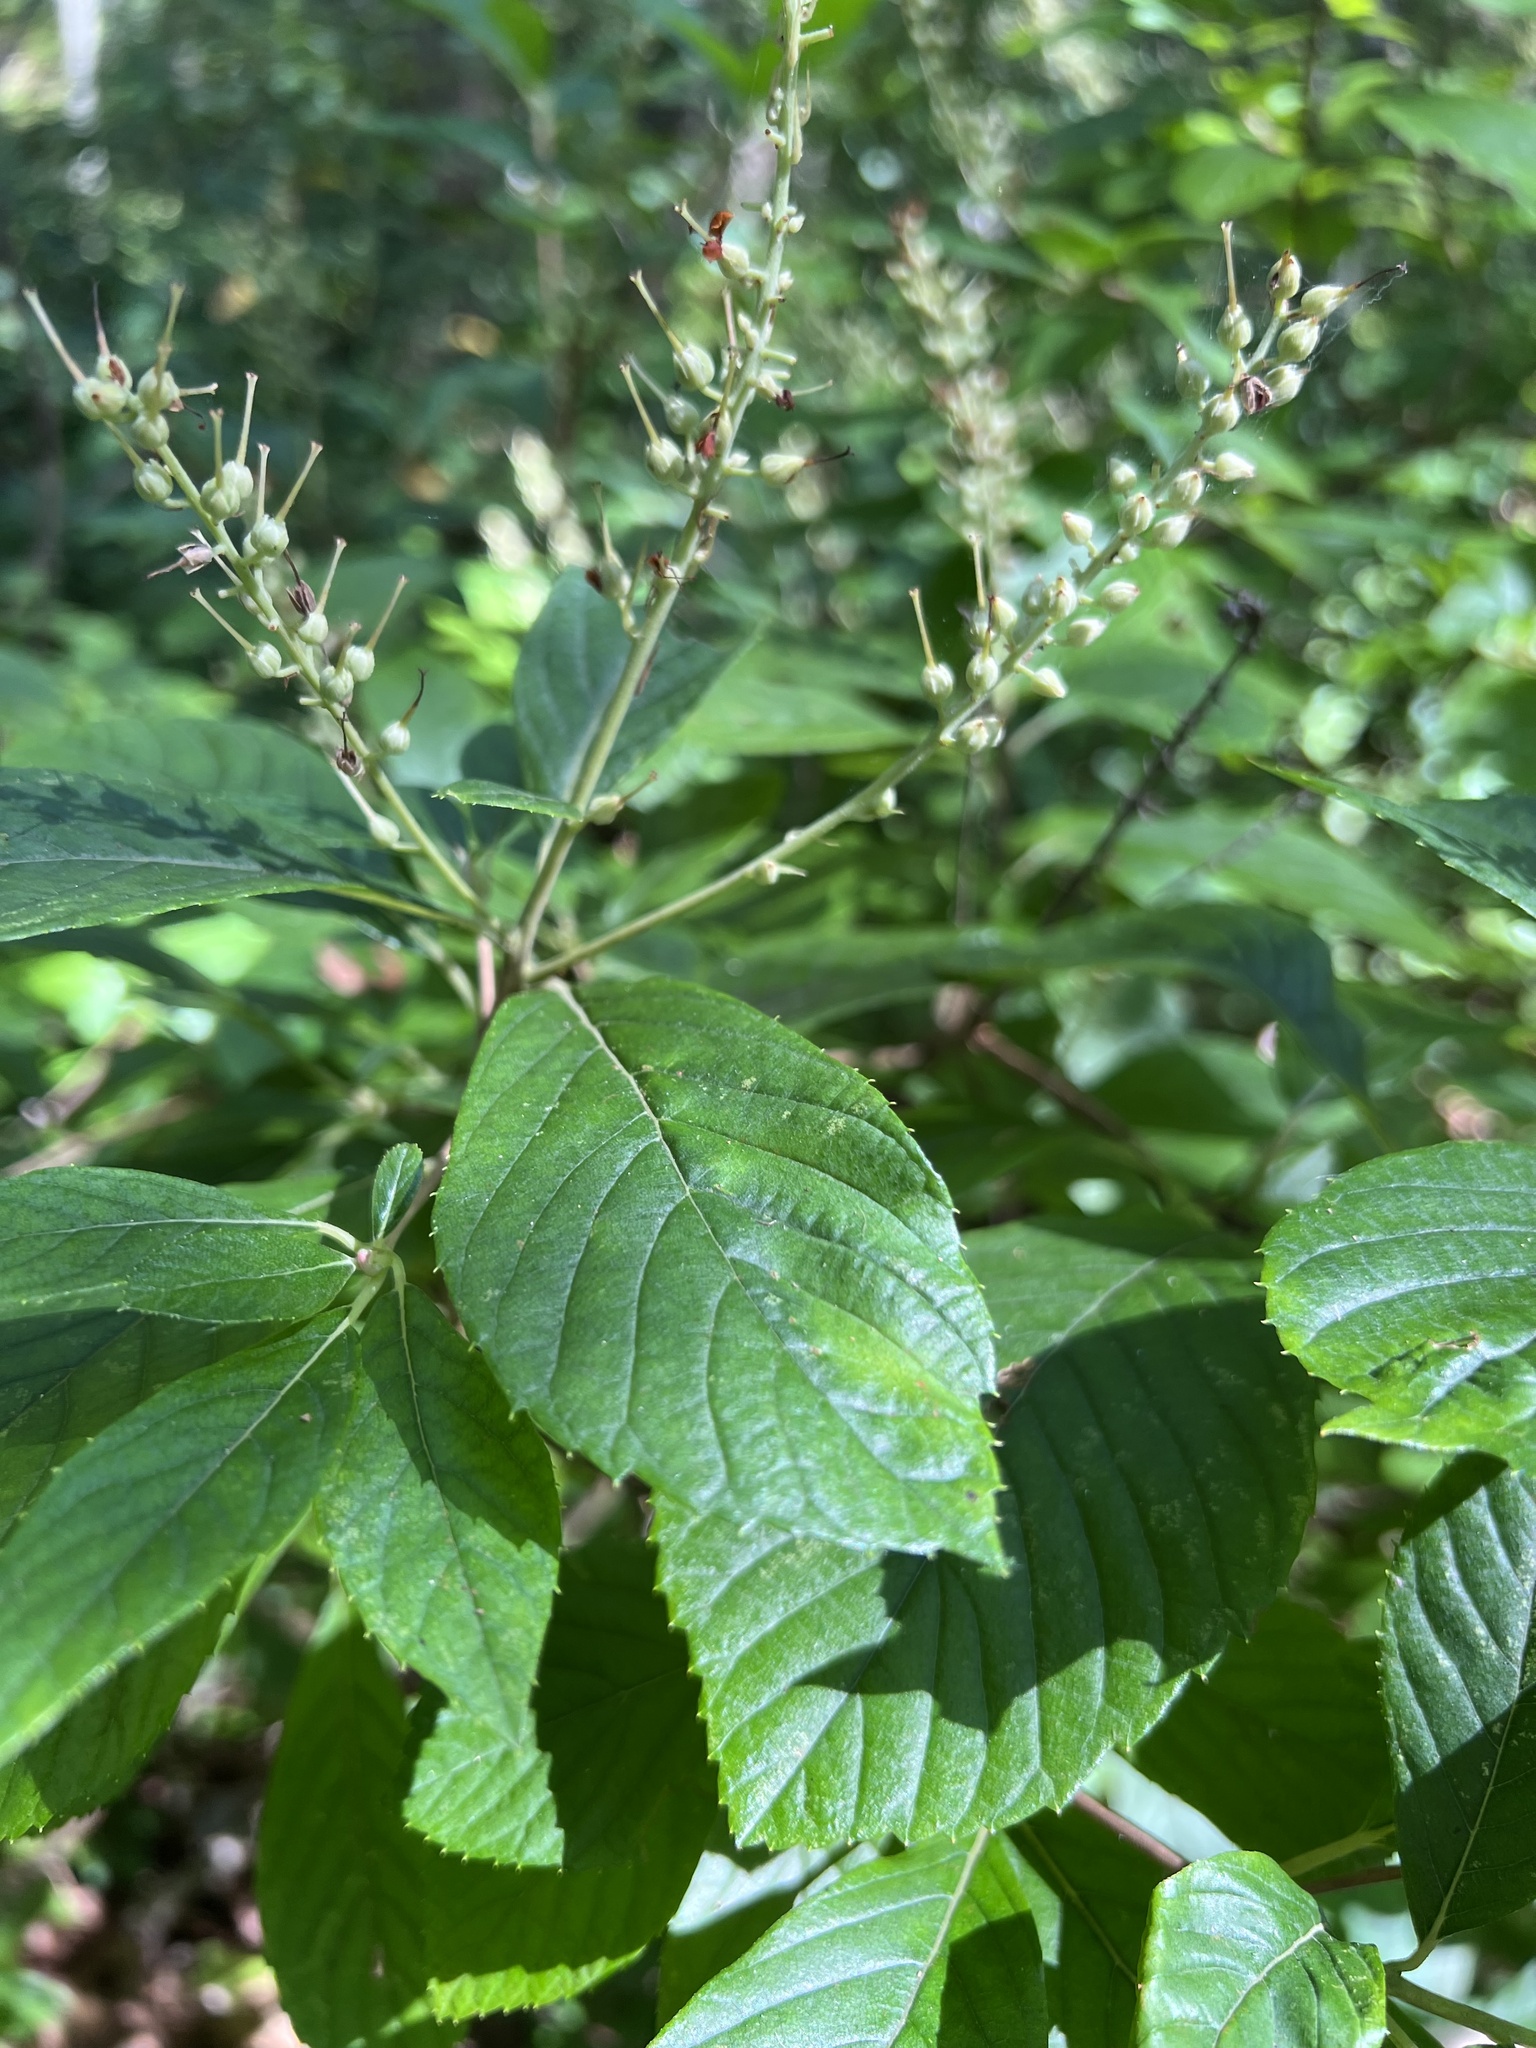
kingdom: Plantae
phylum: Tracheophyta
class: Magnoliopsida
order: Ericales
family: Clethraceae
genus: Clethra
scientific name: Clethra alnifolia
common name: Sweet pepperbush
